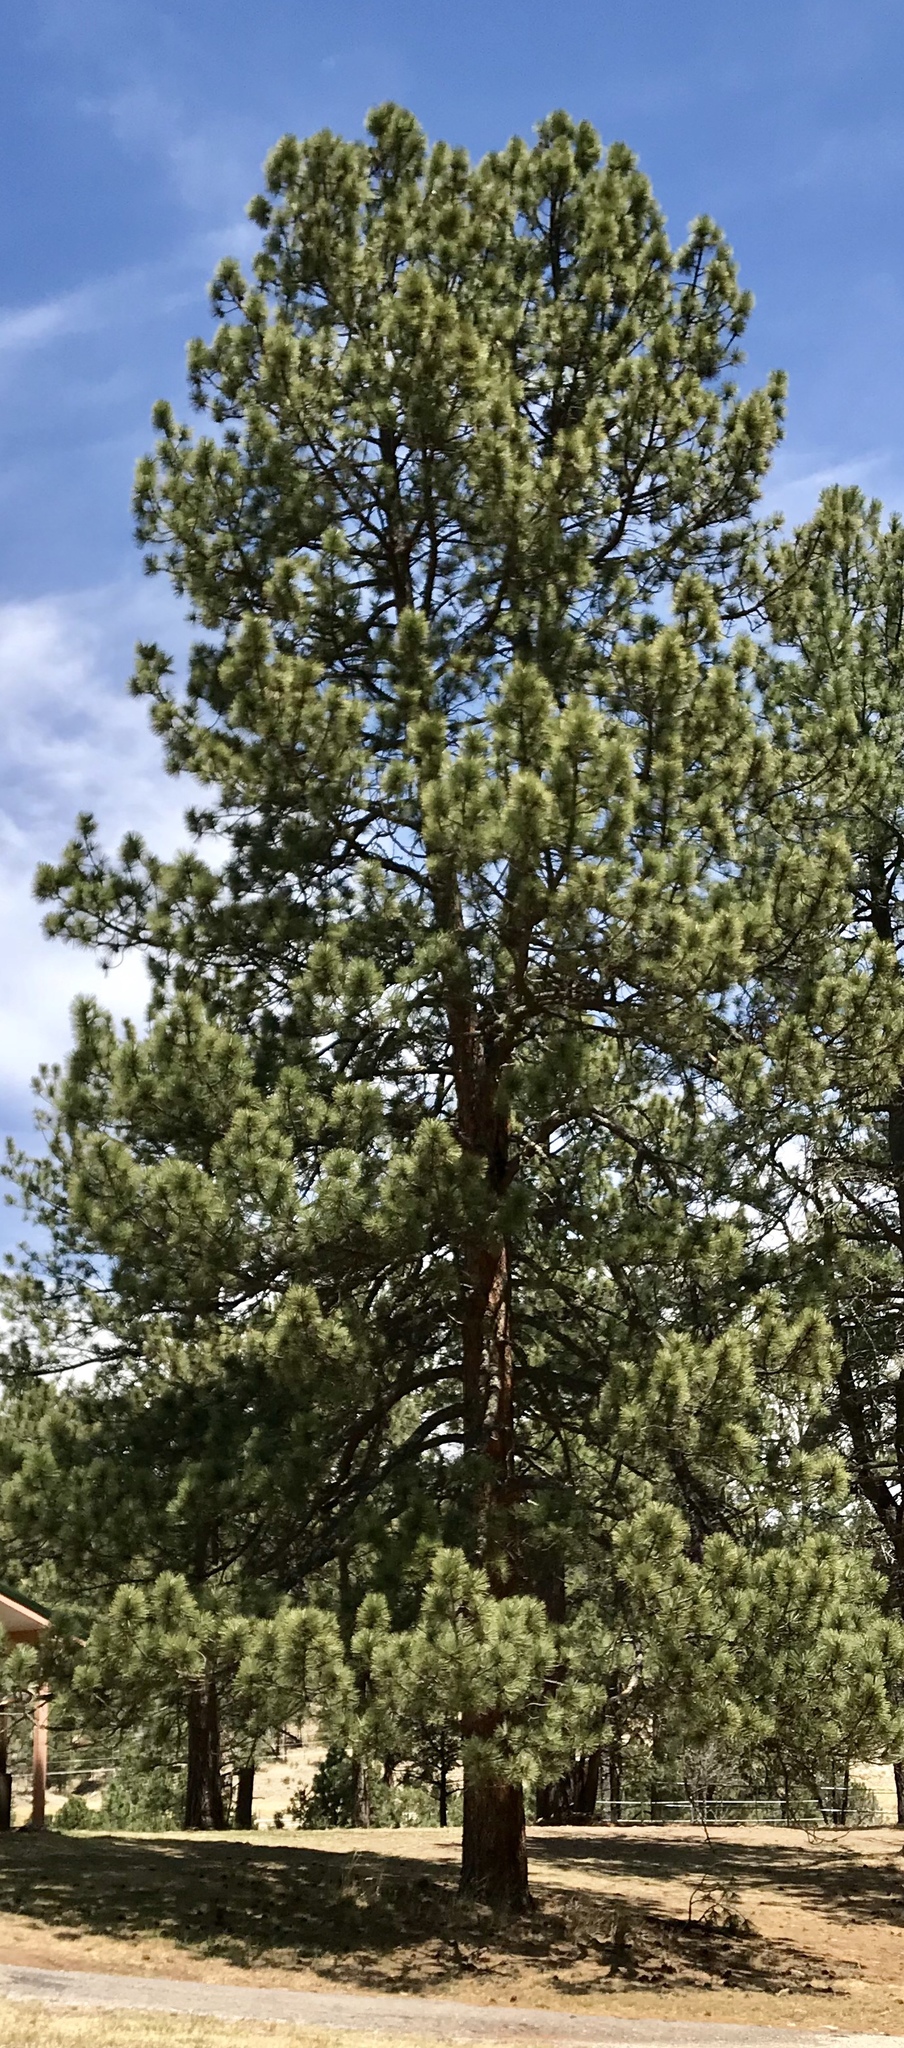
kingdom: Plantae
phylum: Tracheophyta
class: Pinopsida
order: Pinales
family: Pinaceae
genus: Pinus
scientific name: Pinus ponderosa
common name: Western yellow-pine
